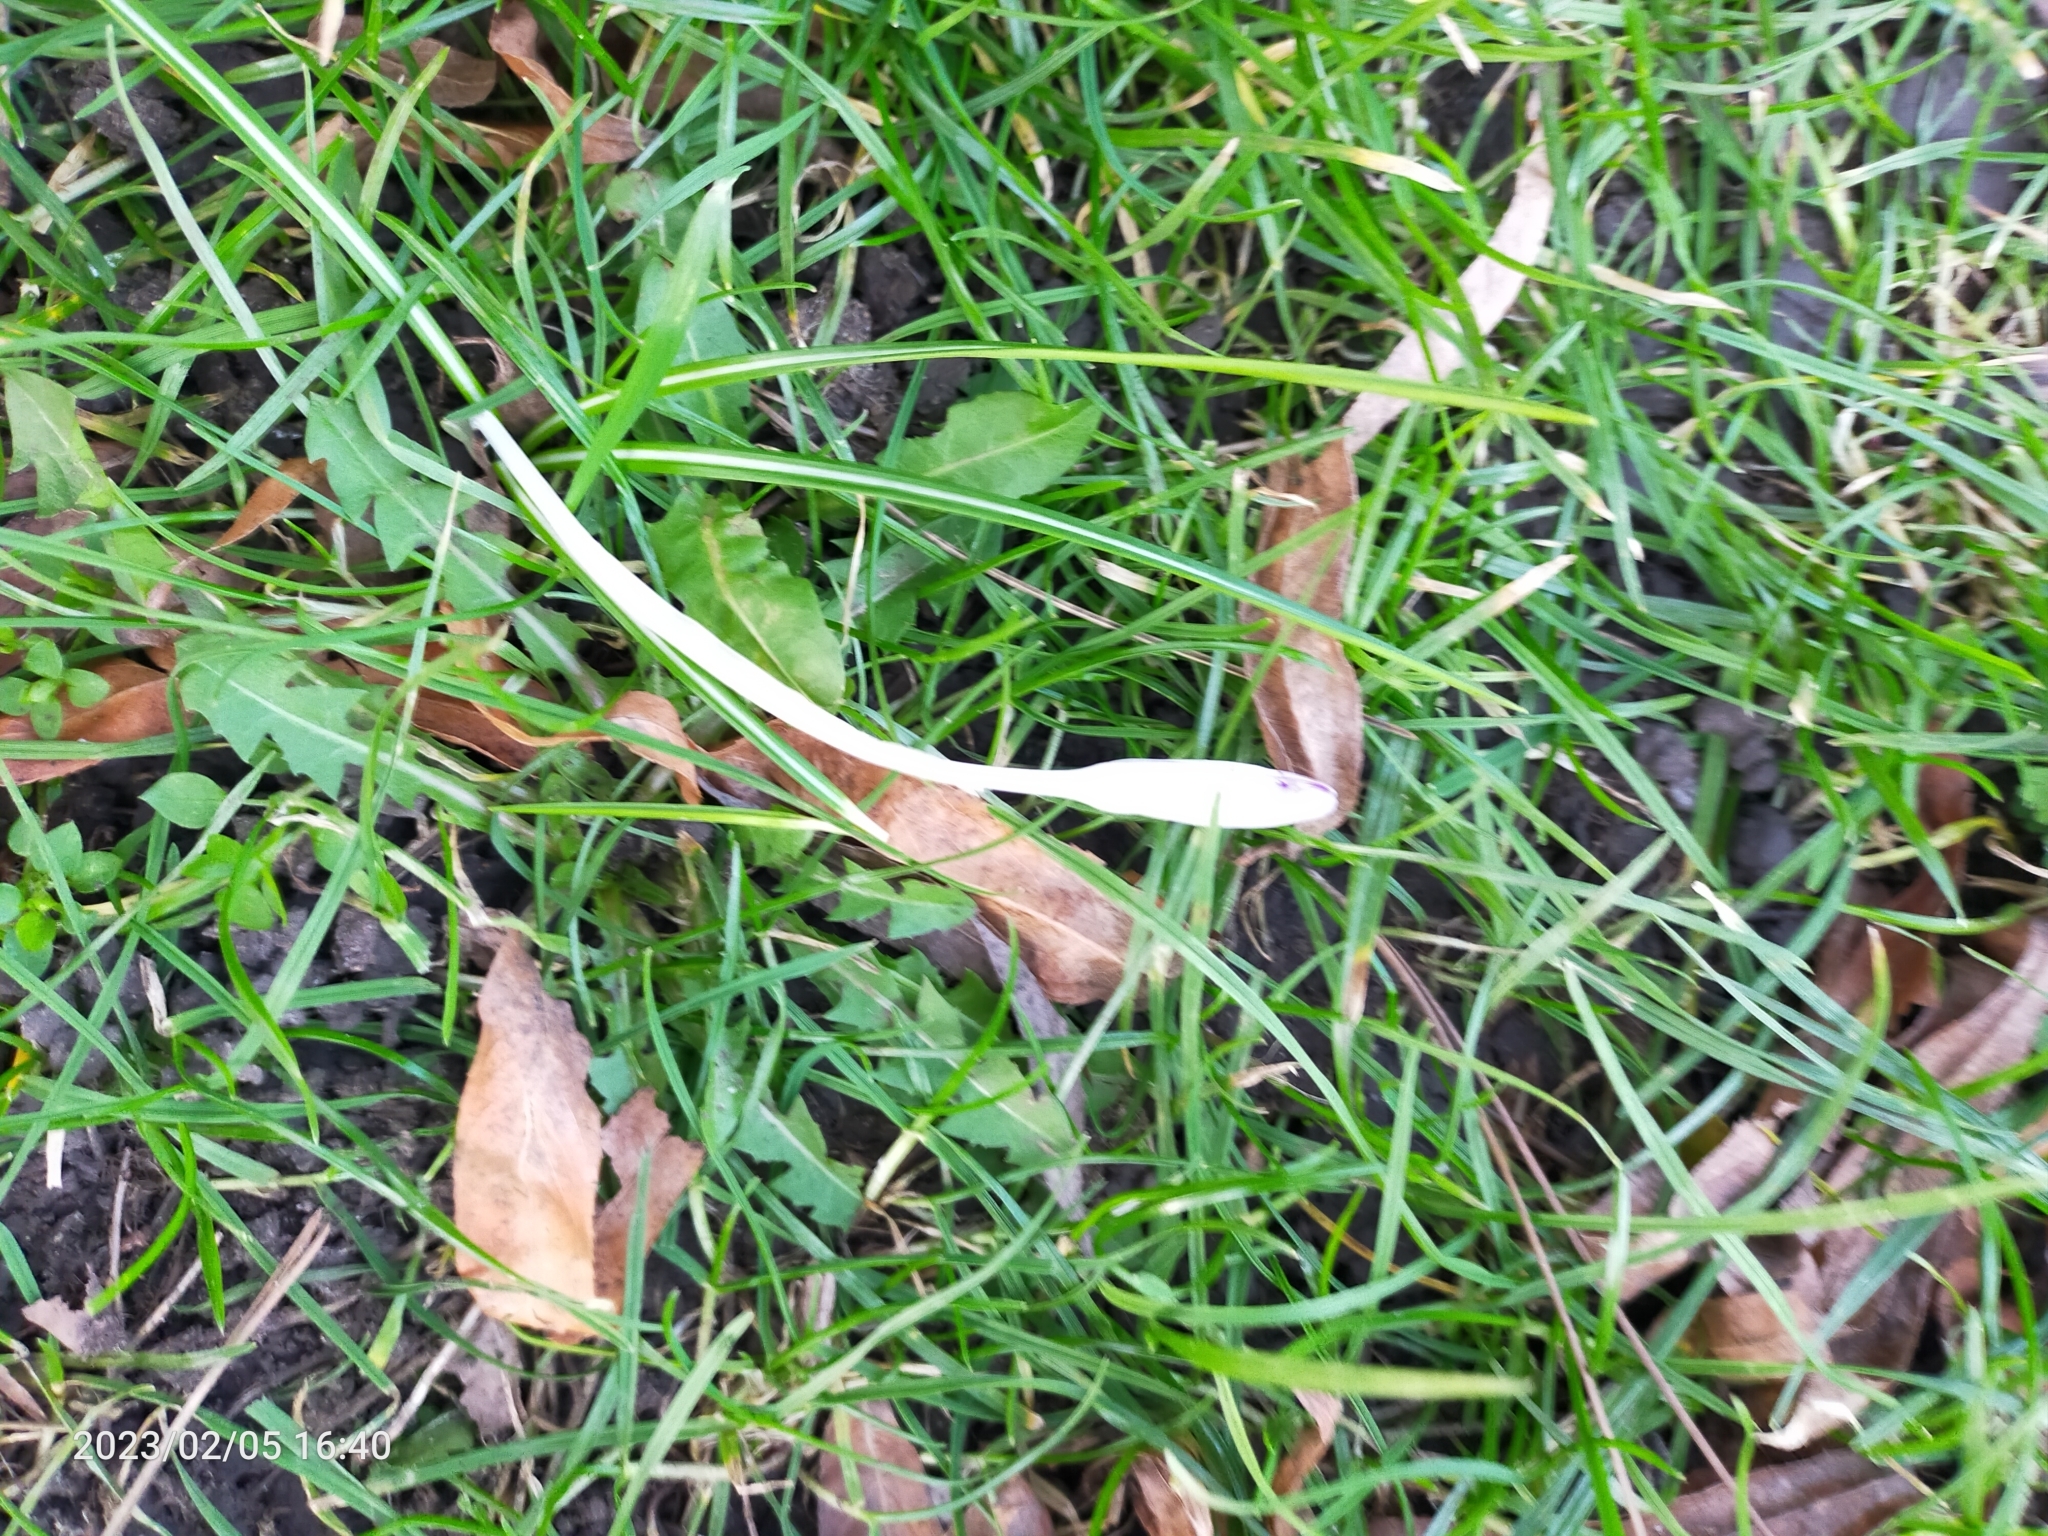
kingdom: Plantae
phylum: Tracheophyta
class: Liliopsida
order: Asparagales
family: Iridaceae
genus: Crocus
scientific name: Crocus tommasinianus
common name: Early crocus
